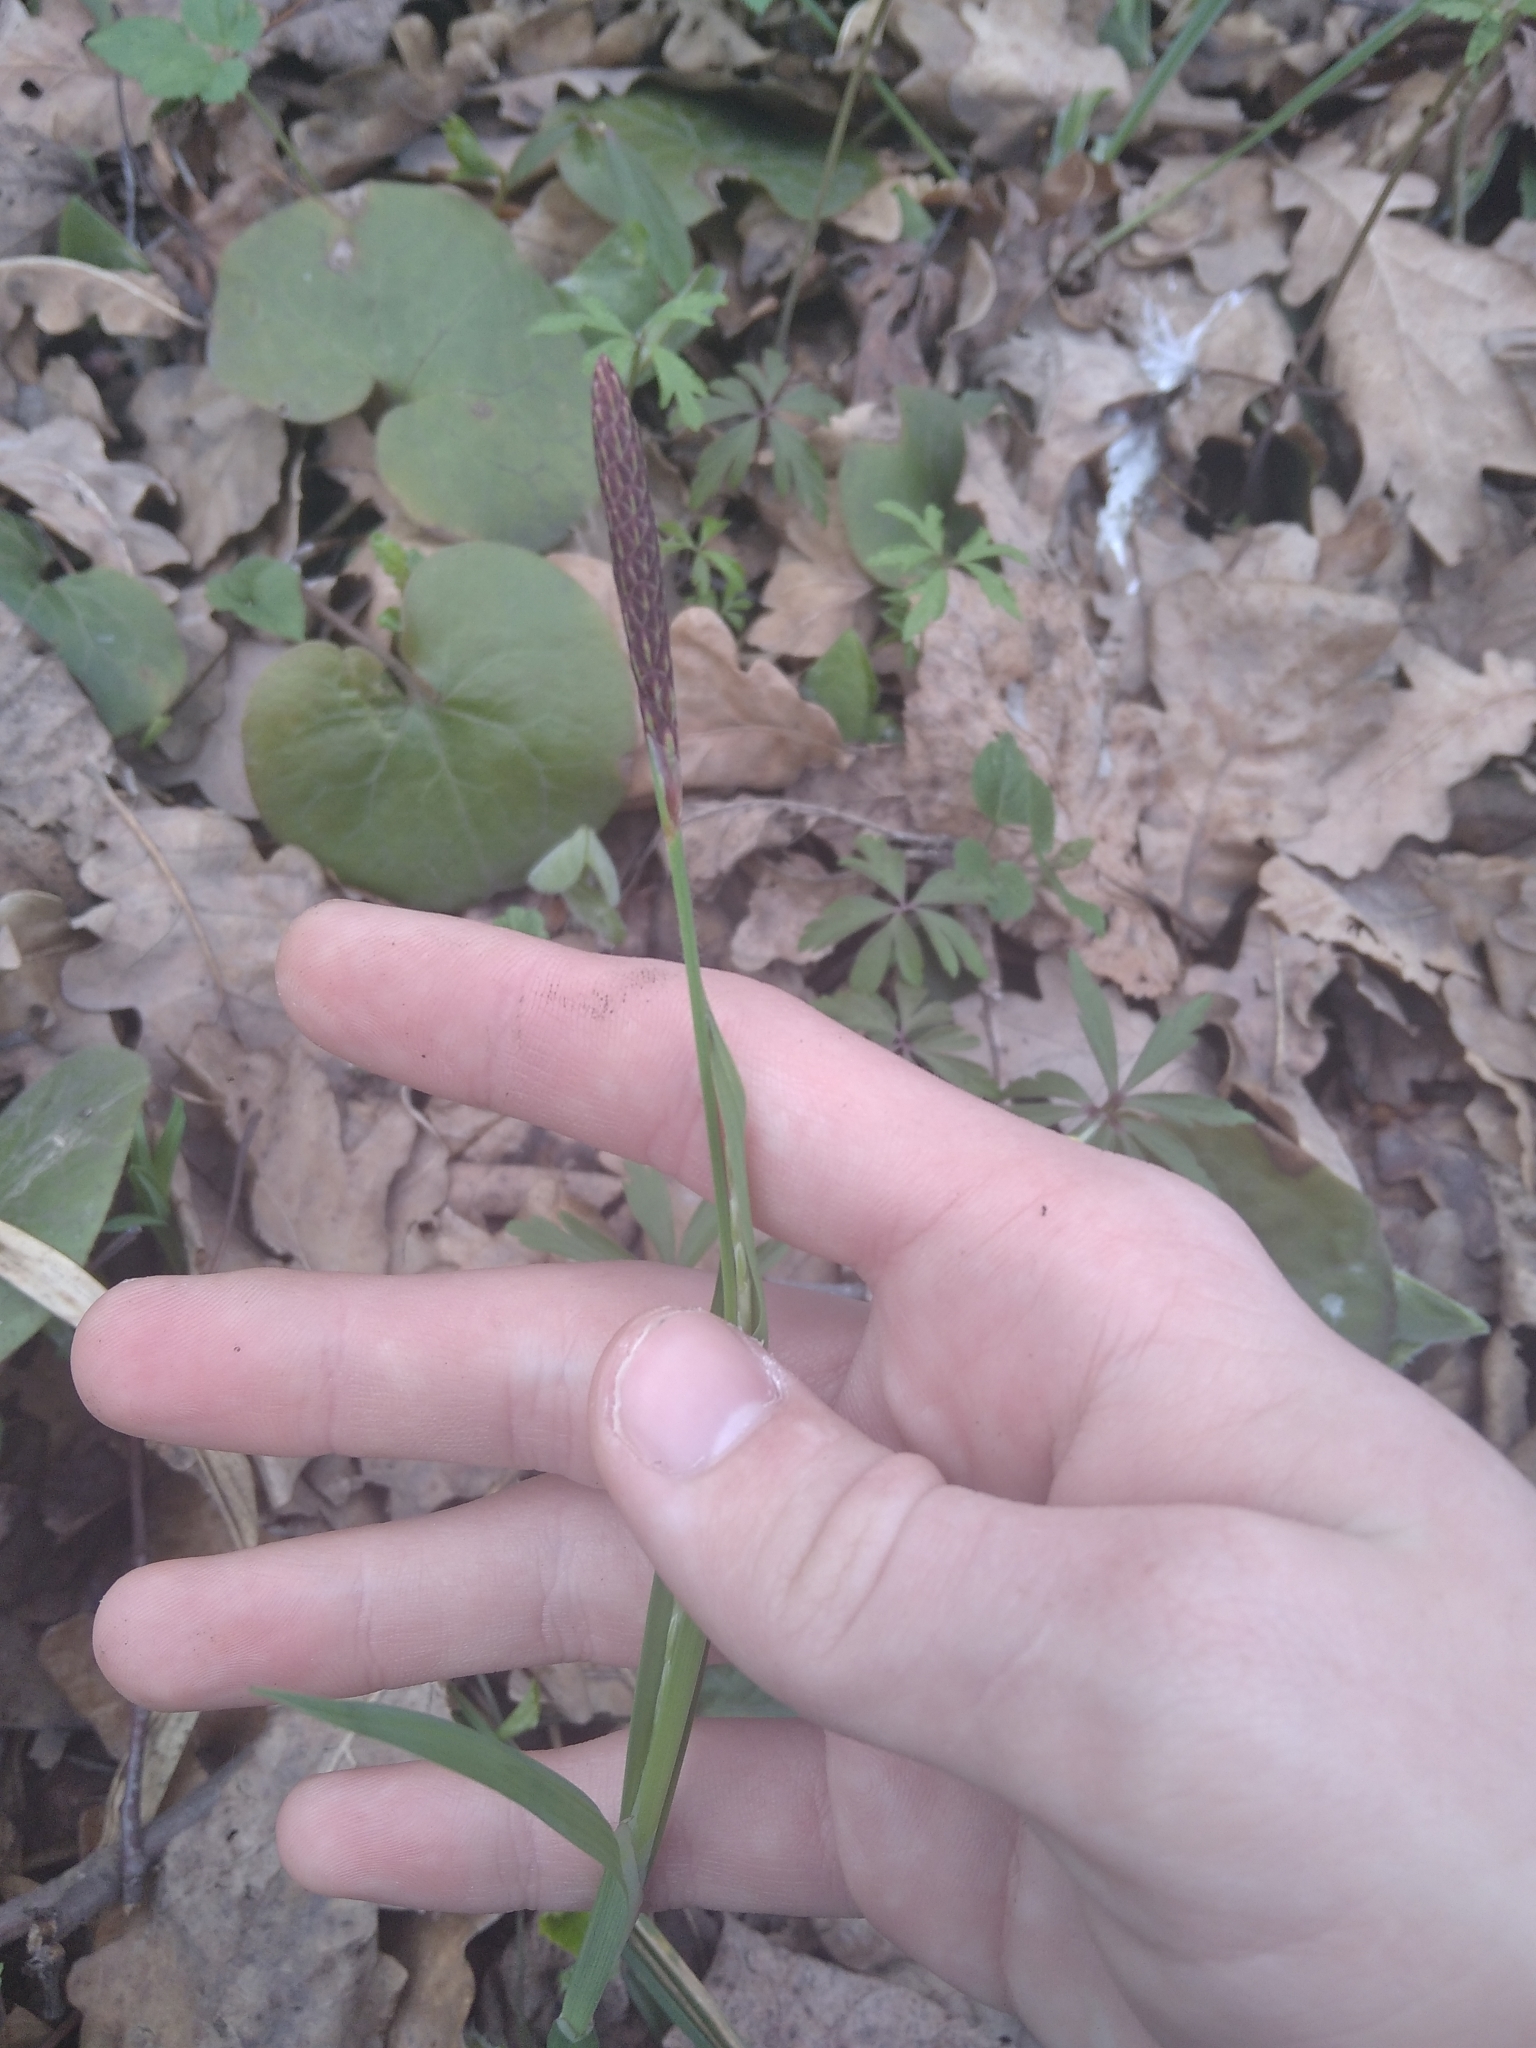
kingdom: Plantae
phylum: Tracheophyta
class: Liliopsida
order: Poales
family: Cyperaceae
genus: Carex
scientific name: Carex pilosa
